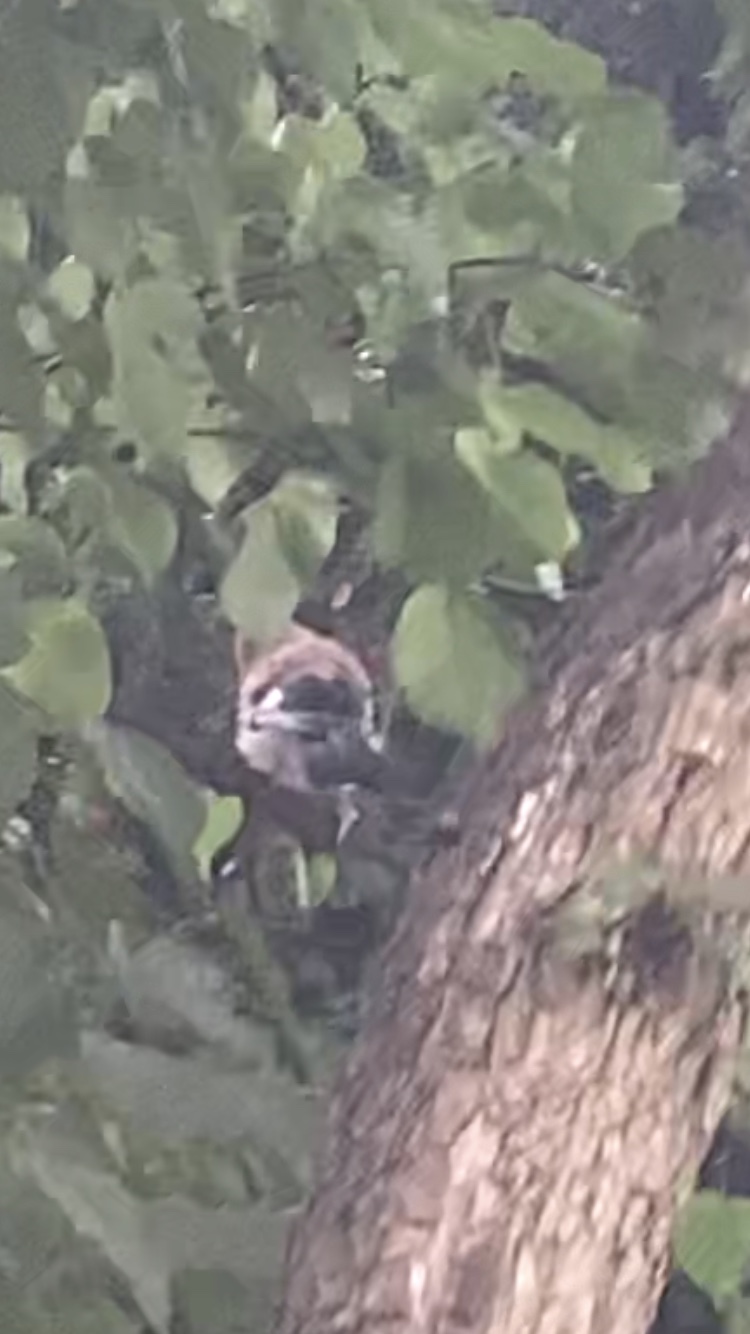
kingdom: Animalia
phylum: Chordata
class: Aves
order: Passeriformes
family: Corvidae
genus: Garrulus
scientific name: Garrulus glandarius
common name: Eurasian jay
